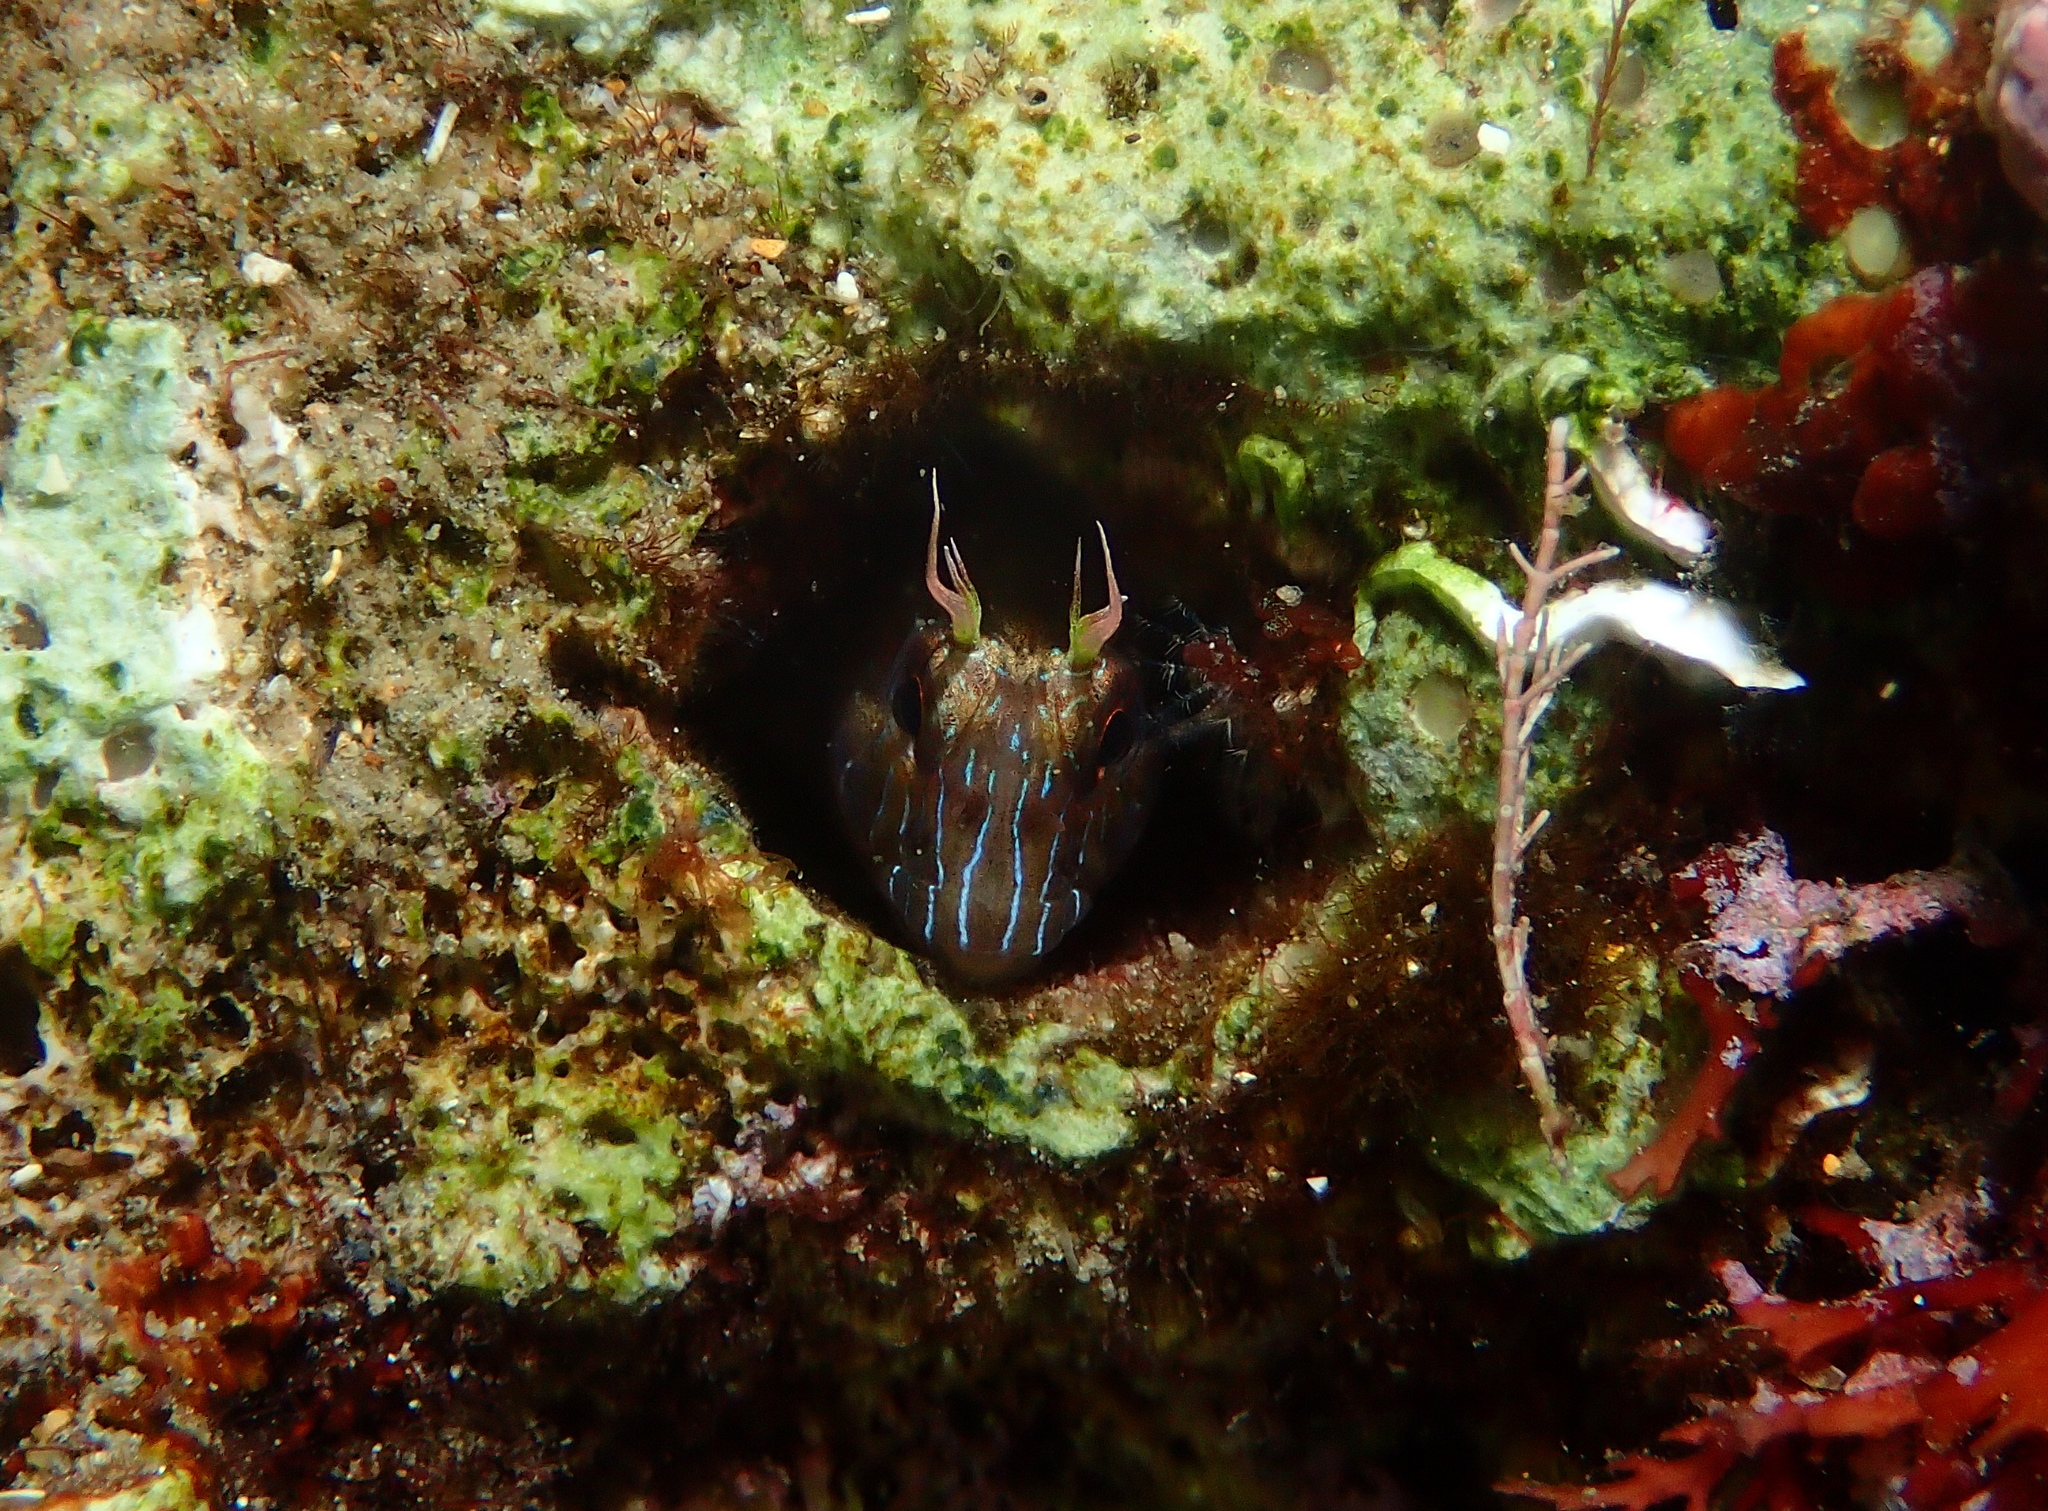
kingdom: Animalia
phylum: Chordata
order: Perciformes
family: Blenniidae
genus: Parablennius
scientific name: Parablennius rouxi
